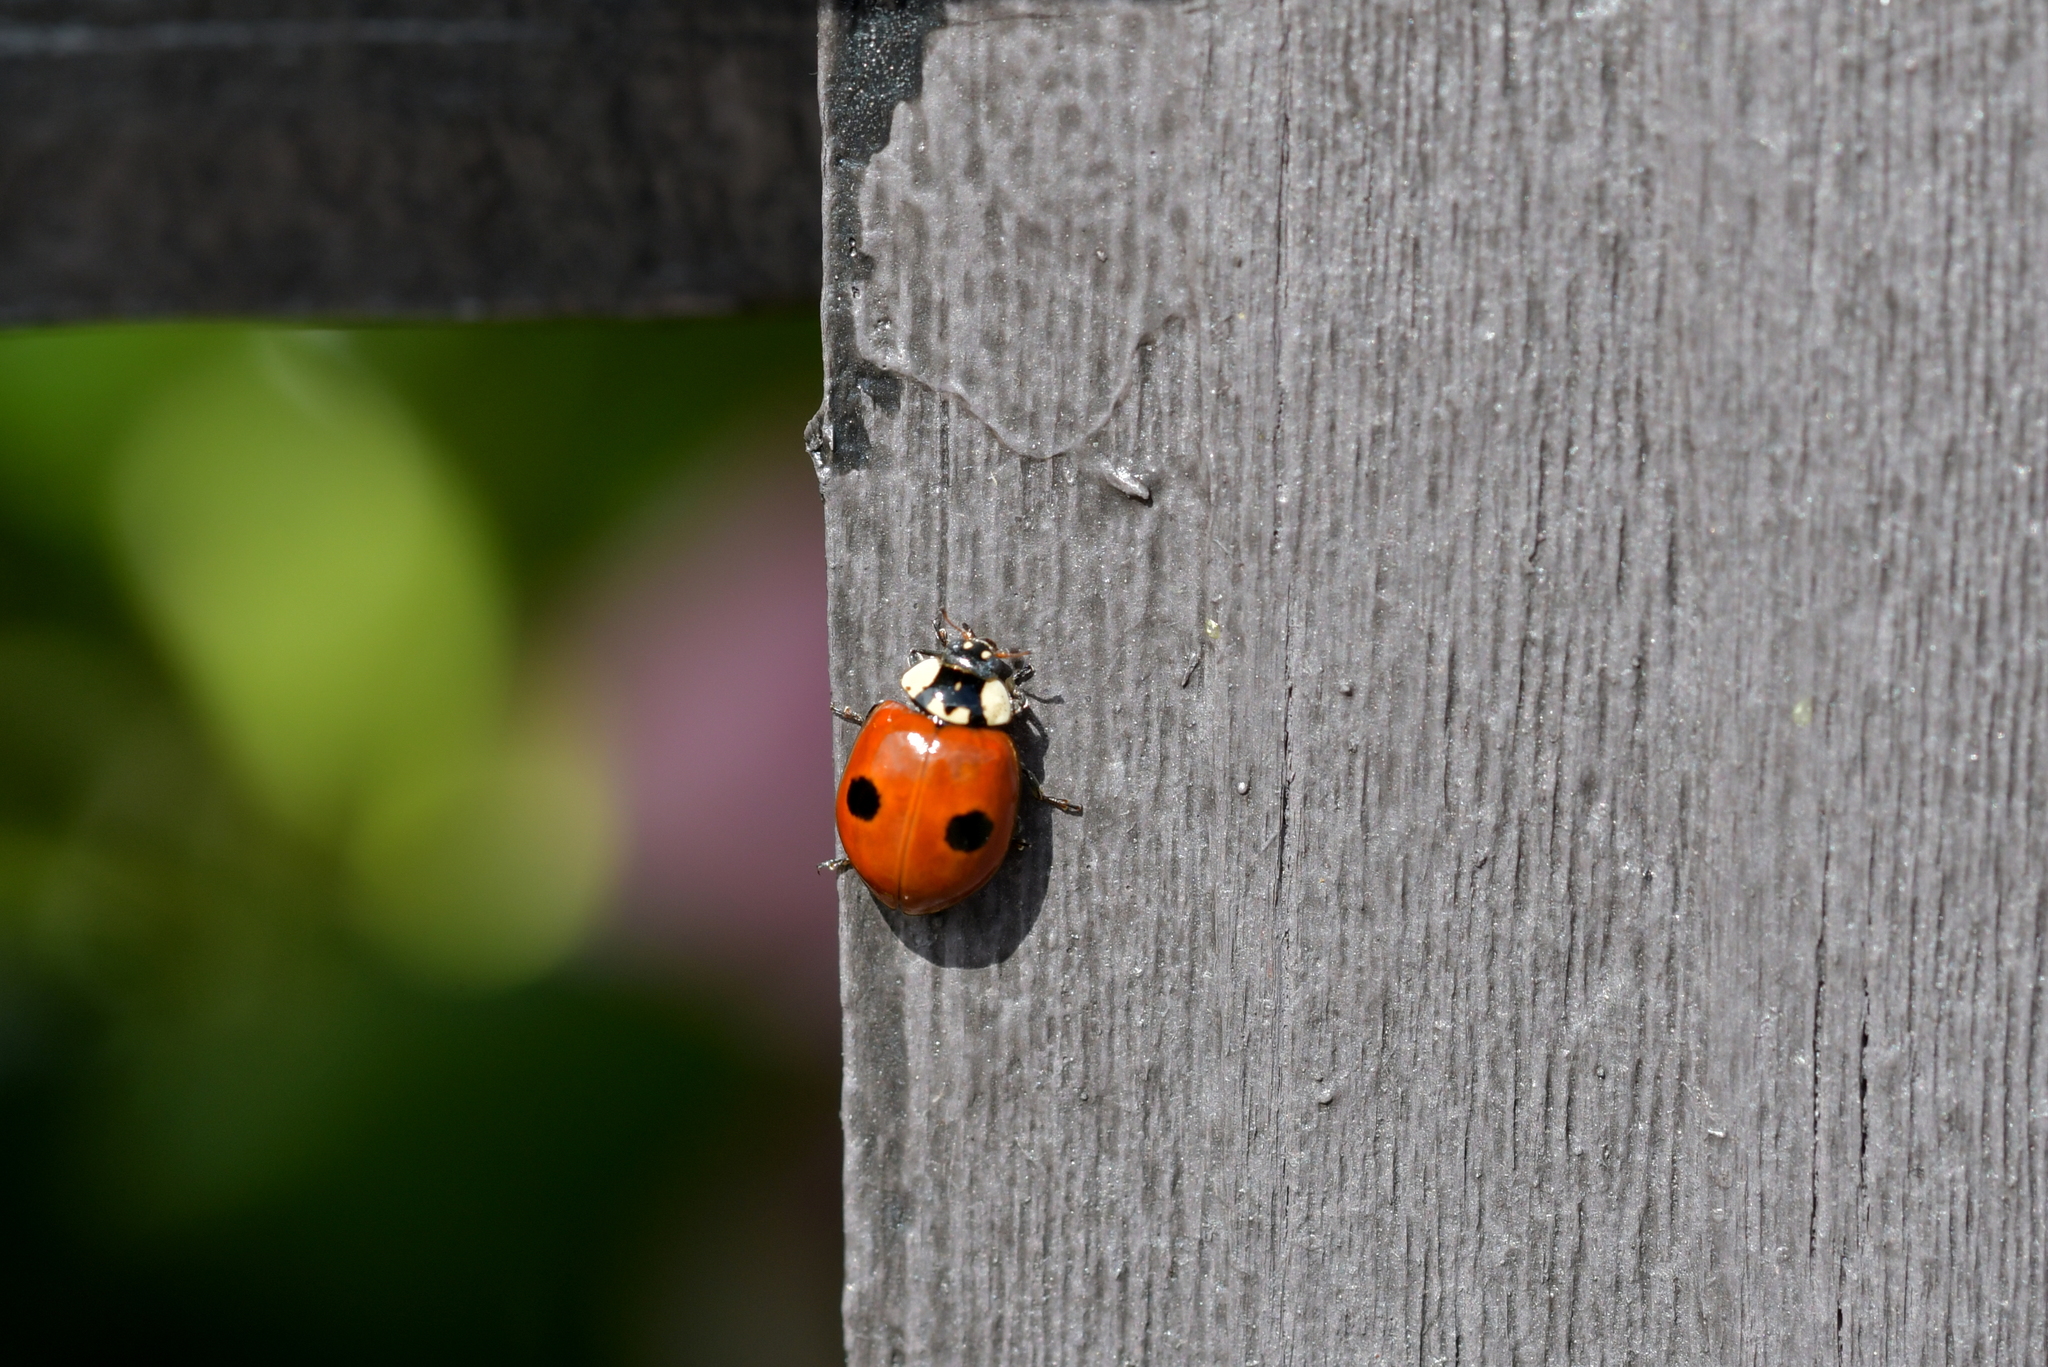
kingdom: Animalia
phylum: Arthropoda
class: Insecta
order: Coleoptera
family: Coccinellidae
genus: Adalia
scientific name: Adalia bipunctata
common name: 2-spot ladybird
